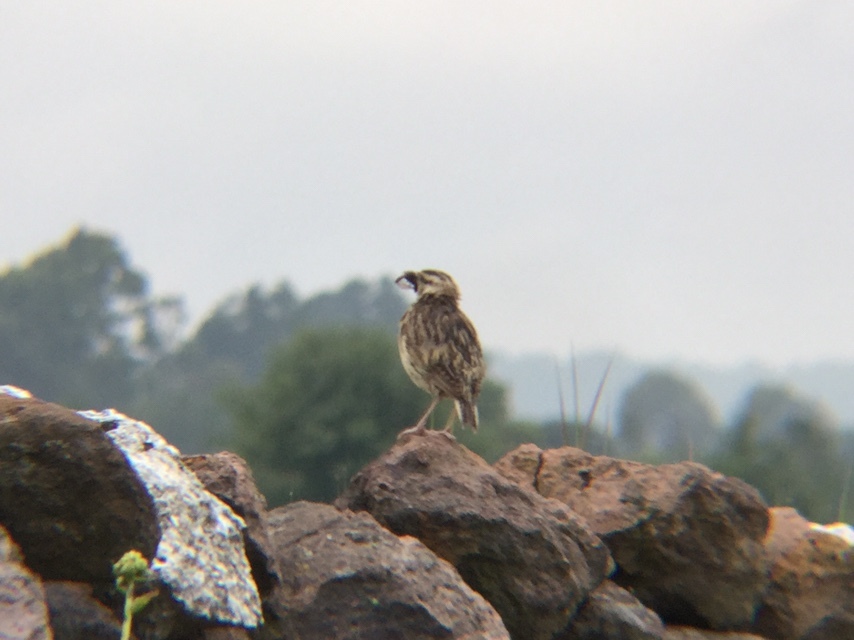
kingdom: Animalia
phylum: Chordata
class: Aves
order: Passeriformes
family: Icteridae
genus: Sturnella
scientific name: Sturnella lilianae
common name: Lilian's meadowlark
